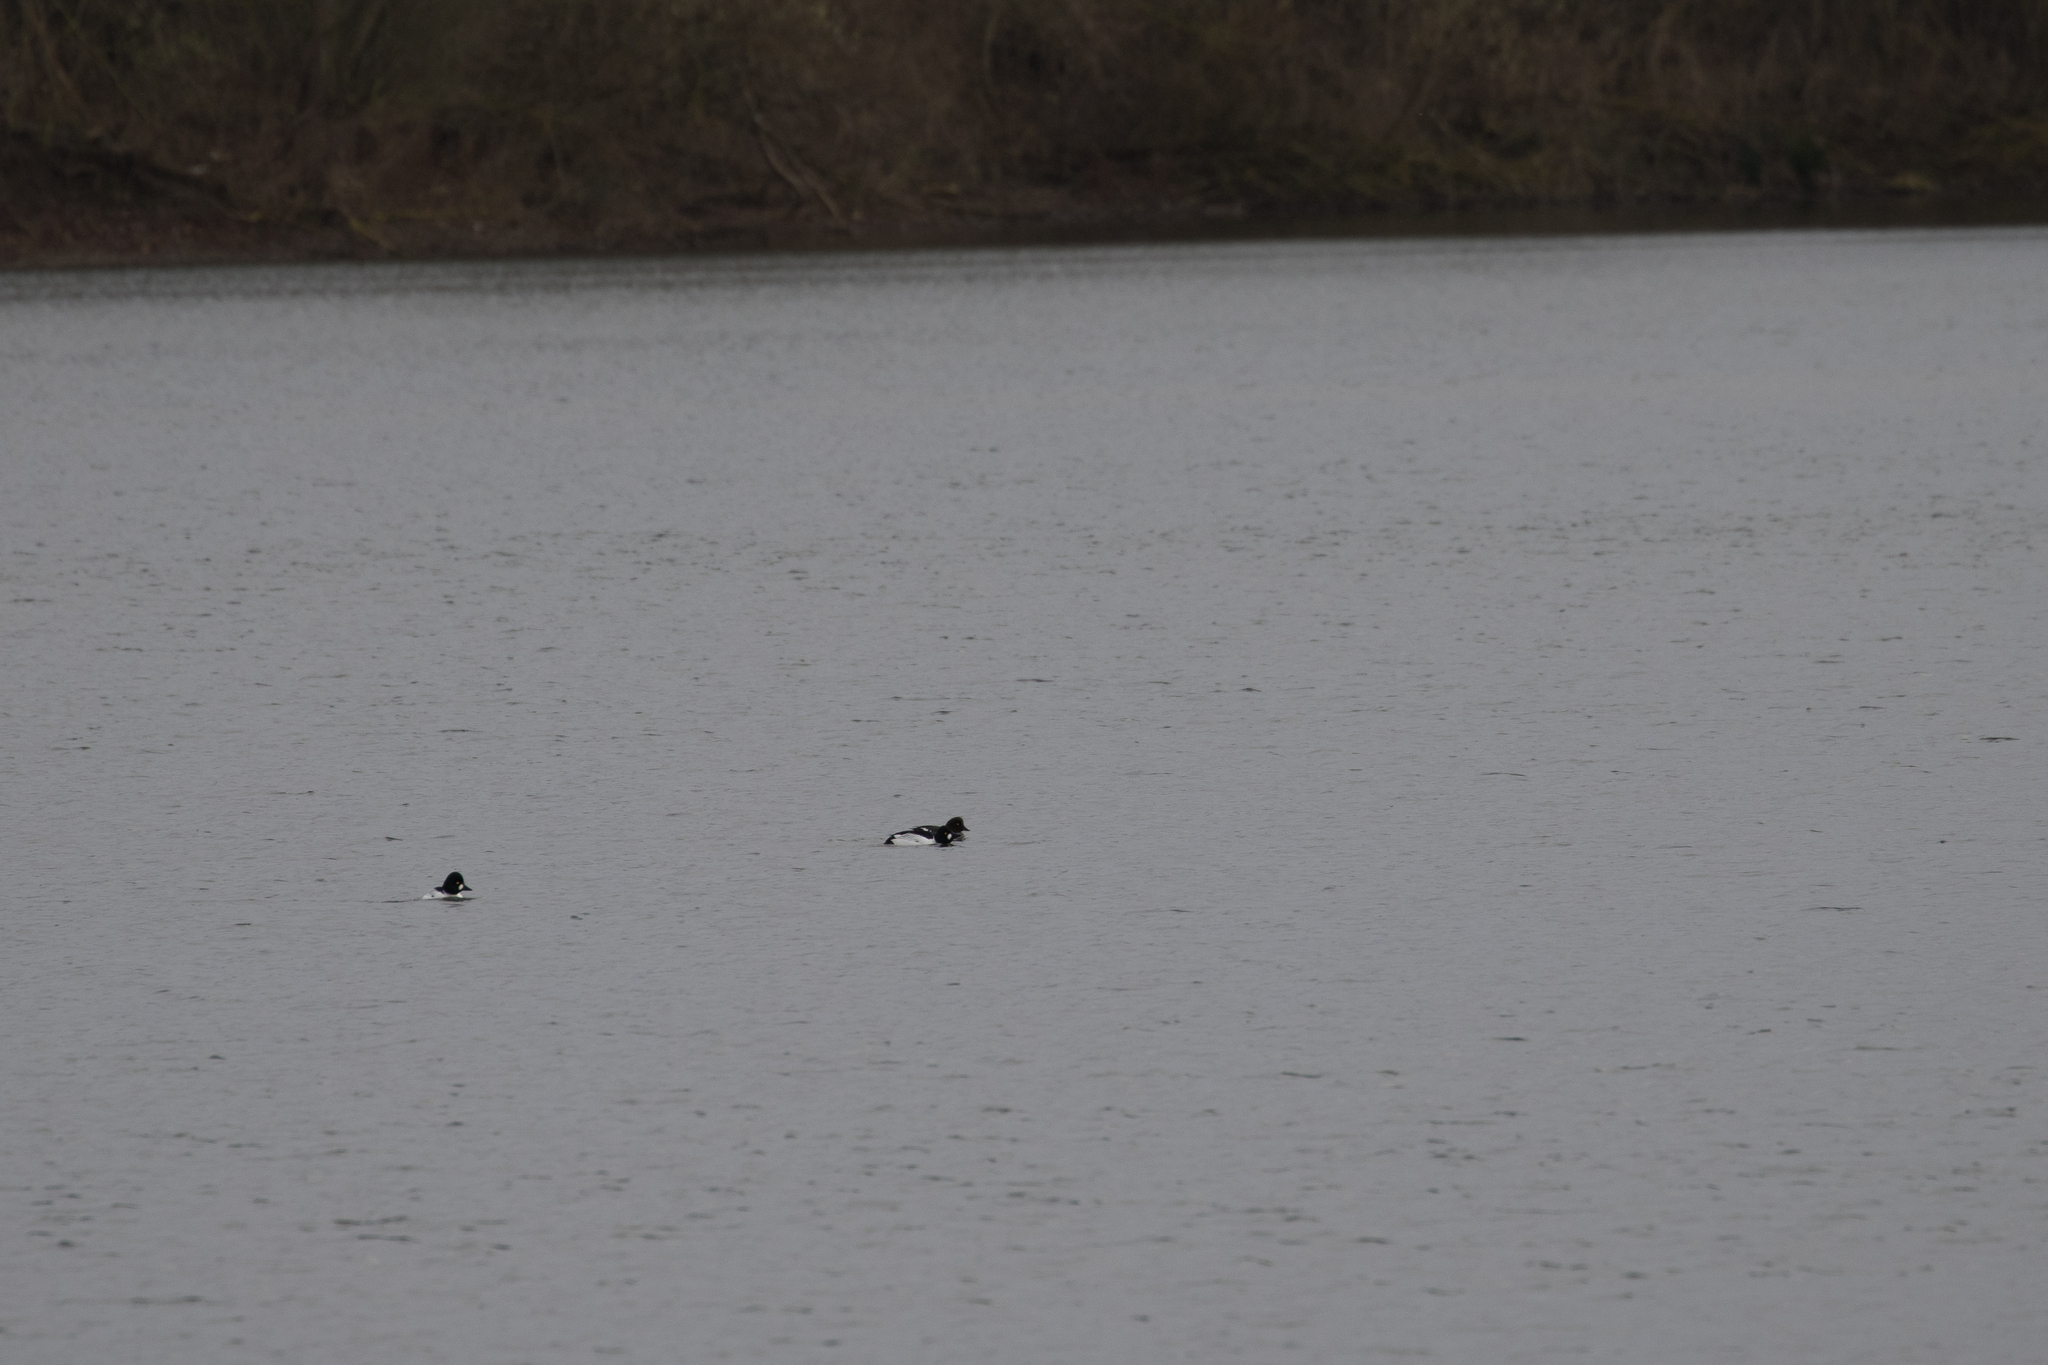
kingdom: Animalia
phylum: Chordata
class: Aves
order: Anseriformes
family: Anatidae
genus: Bucephala
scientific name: Bucephala clangula
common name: Common goldeneye
